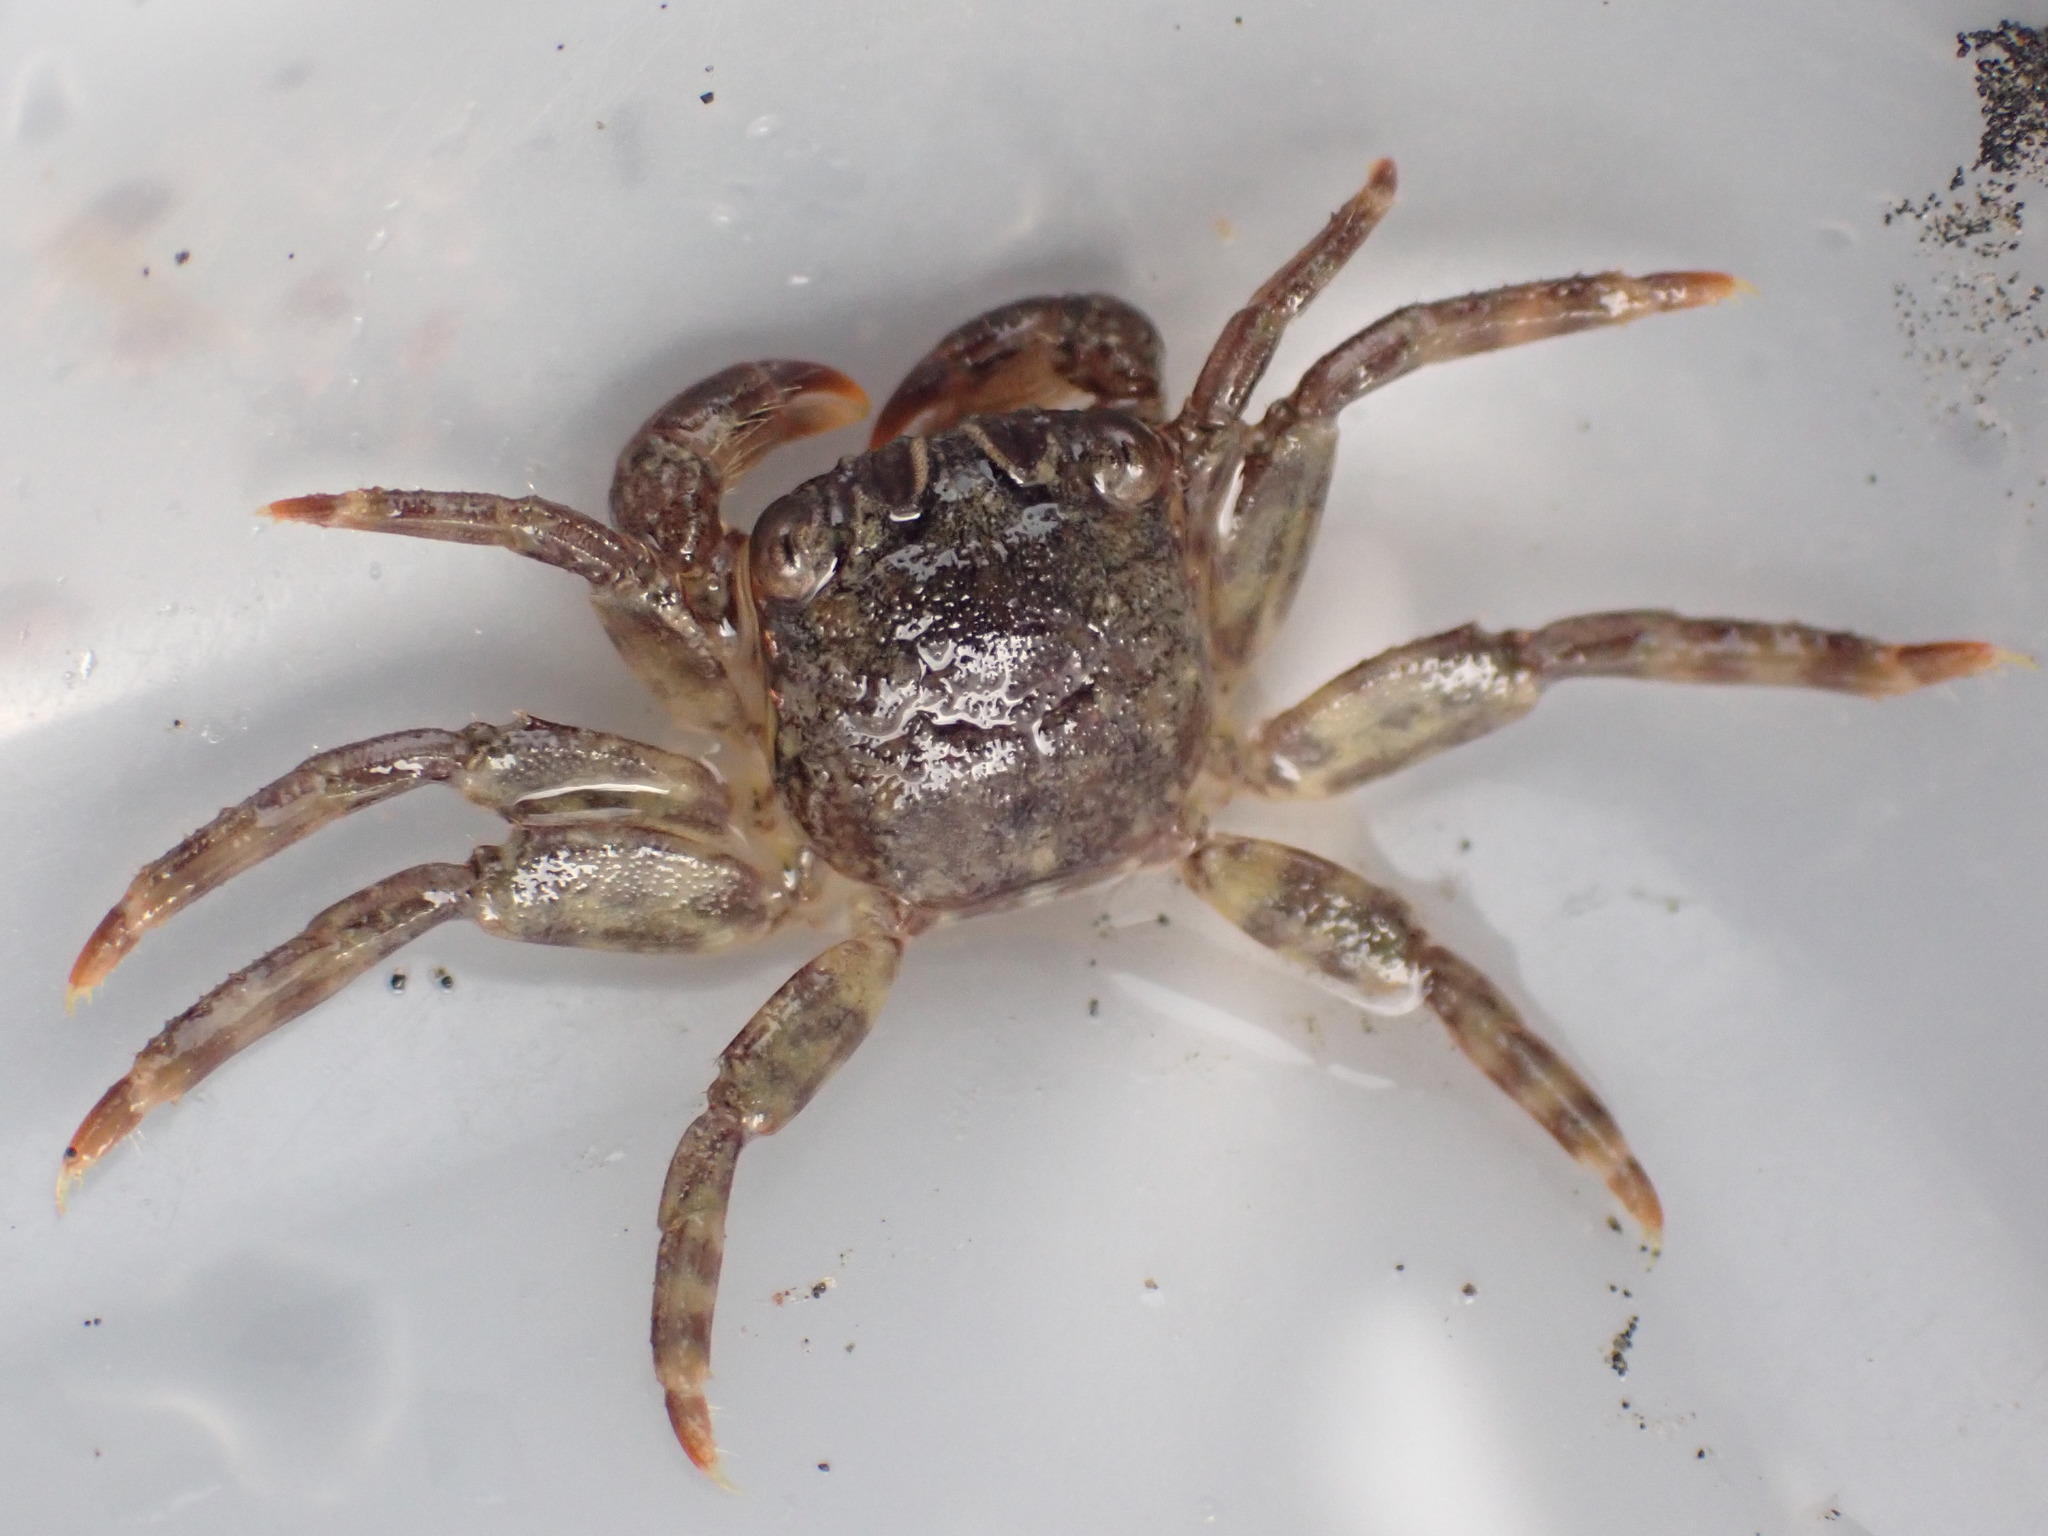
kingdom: Animalia
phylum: Arthropoda
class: Malacostraca
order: Decapoda
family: Plagusiidae
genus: Guinusia
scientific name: Guinusia chabrus
